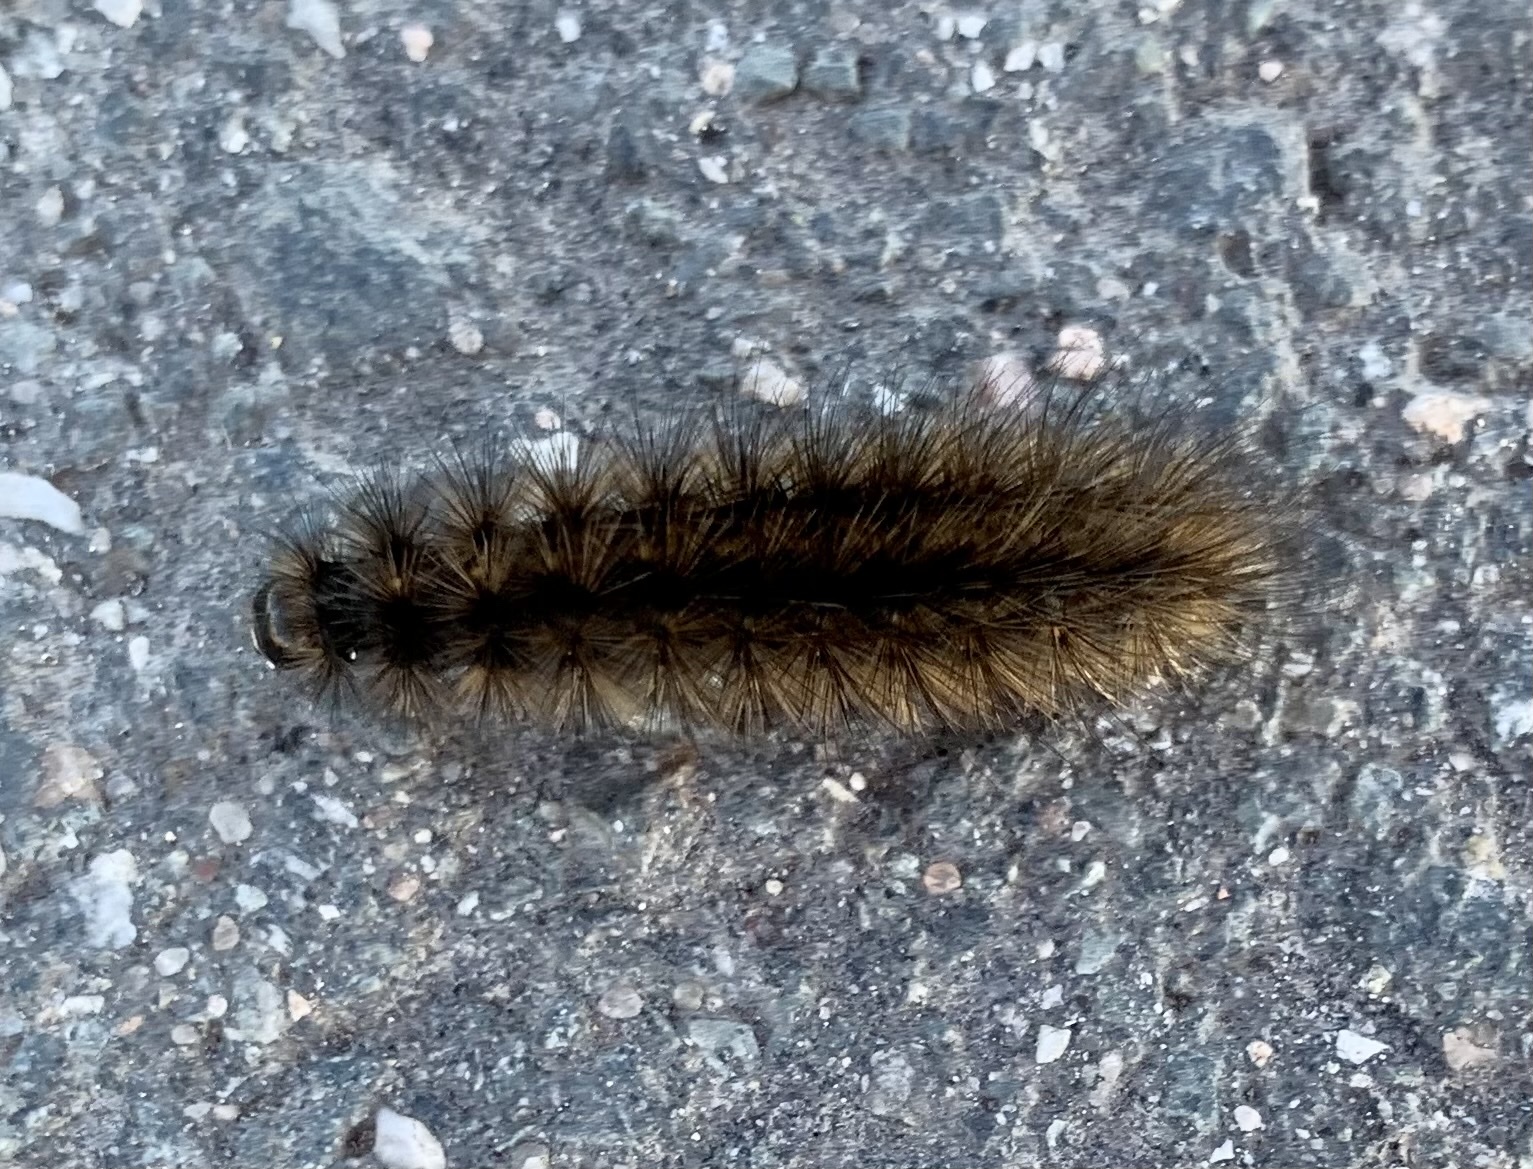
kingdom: Animalia
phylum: Arthropoda
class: Insecta
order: Lepidoptera
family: Erebidae
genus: Phragmatobia
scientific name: Phragmatobia fuliginosa
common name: Ruby tiger
